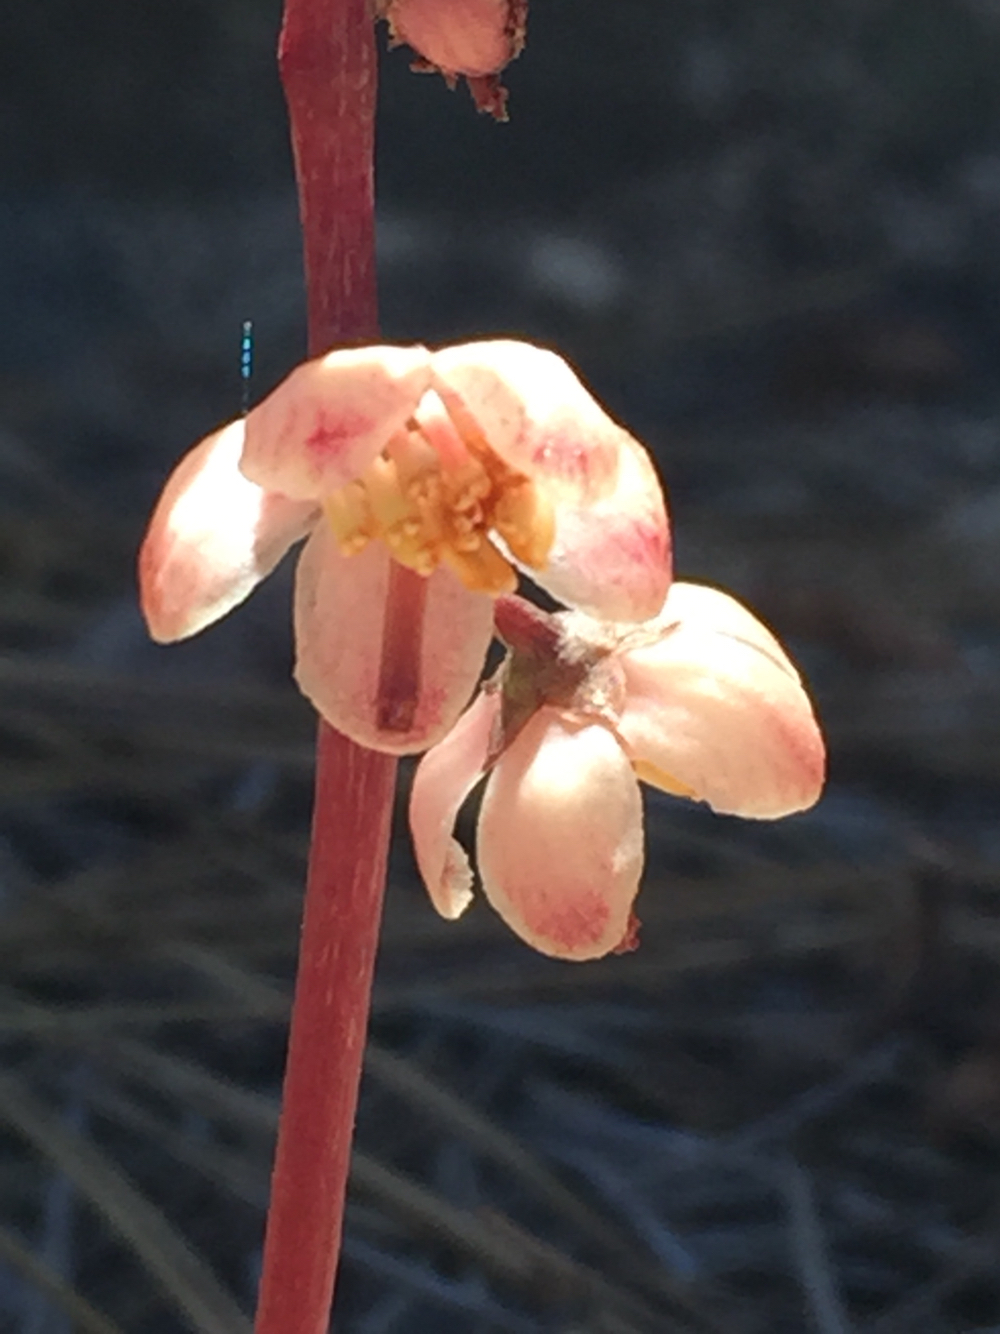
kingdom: Plantae
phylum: Tracheophyta
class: Magnoliopsida
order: Ericales
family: Ericaceae
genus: Pyrola
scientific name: Pyrola aphylla
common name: Leafless wintergreen
